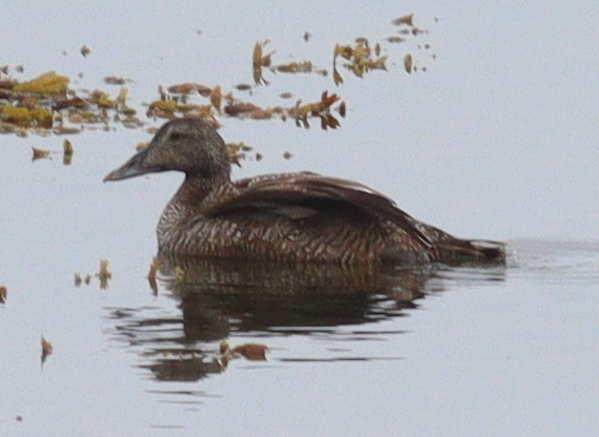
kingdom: Animalia
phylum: Chordata
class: Aves
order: Anseriformes
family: Anatidae
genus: Somateria
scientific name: Somateria mollissima
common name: Common eider
